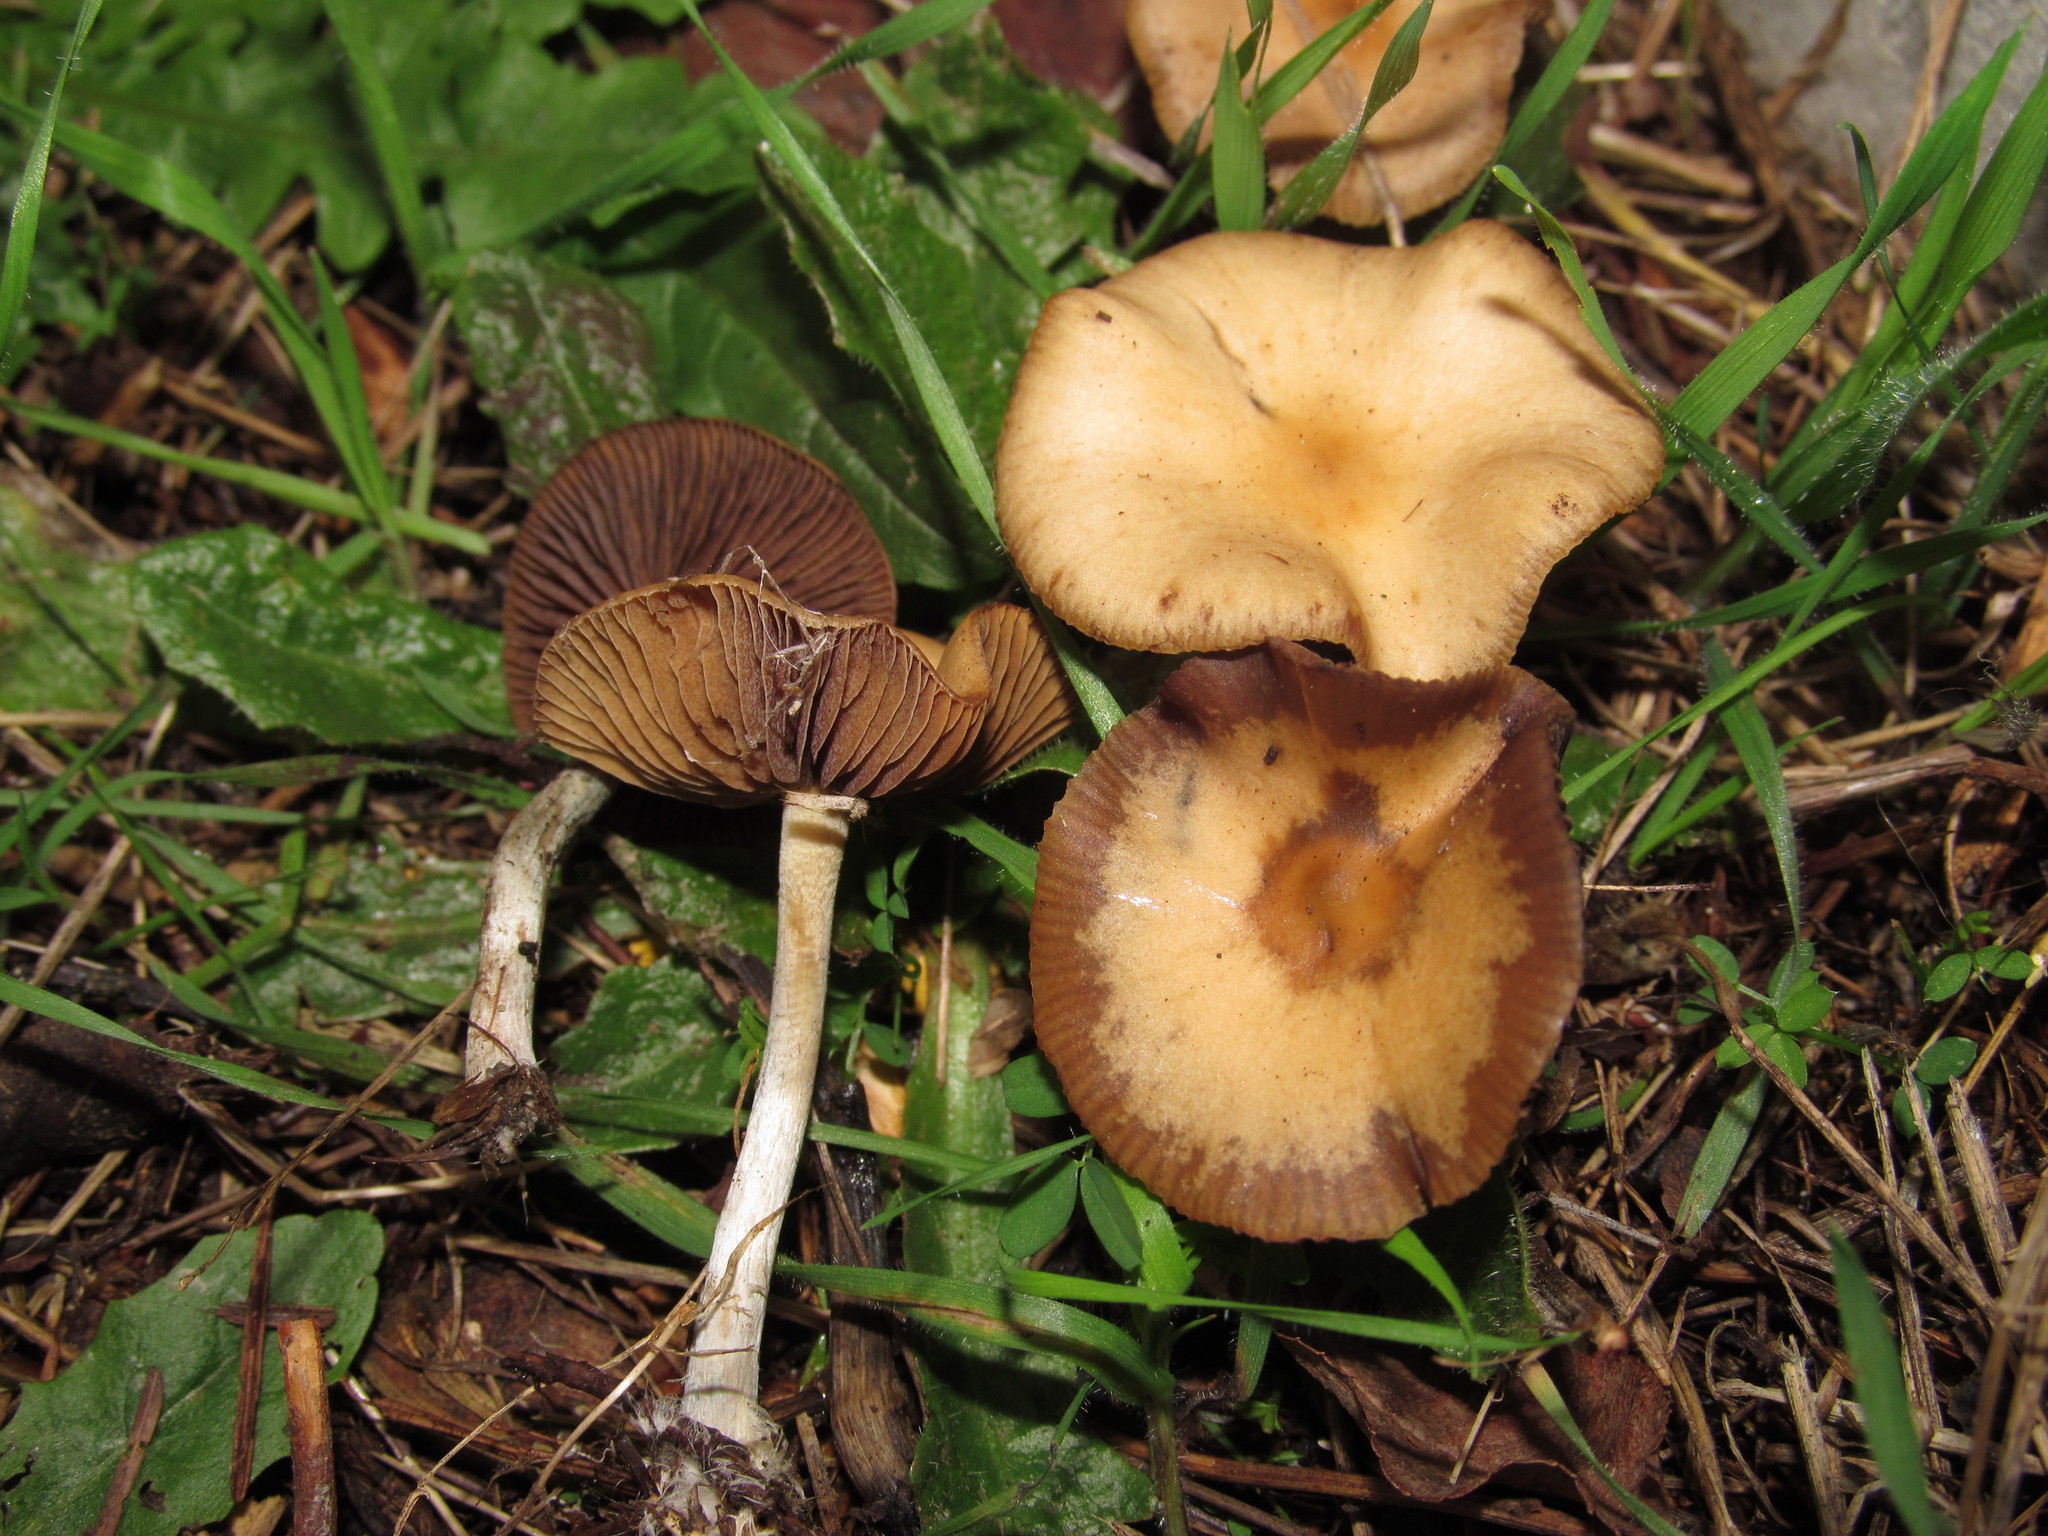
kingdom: Fungi
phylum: Basidiomycota
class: Agaricomycetes
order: Agaricales
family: Hymenogastraceae
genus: Psilocybe
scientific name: Psilocybe cyanescens
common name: Blueleg brownie
